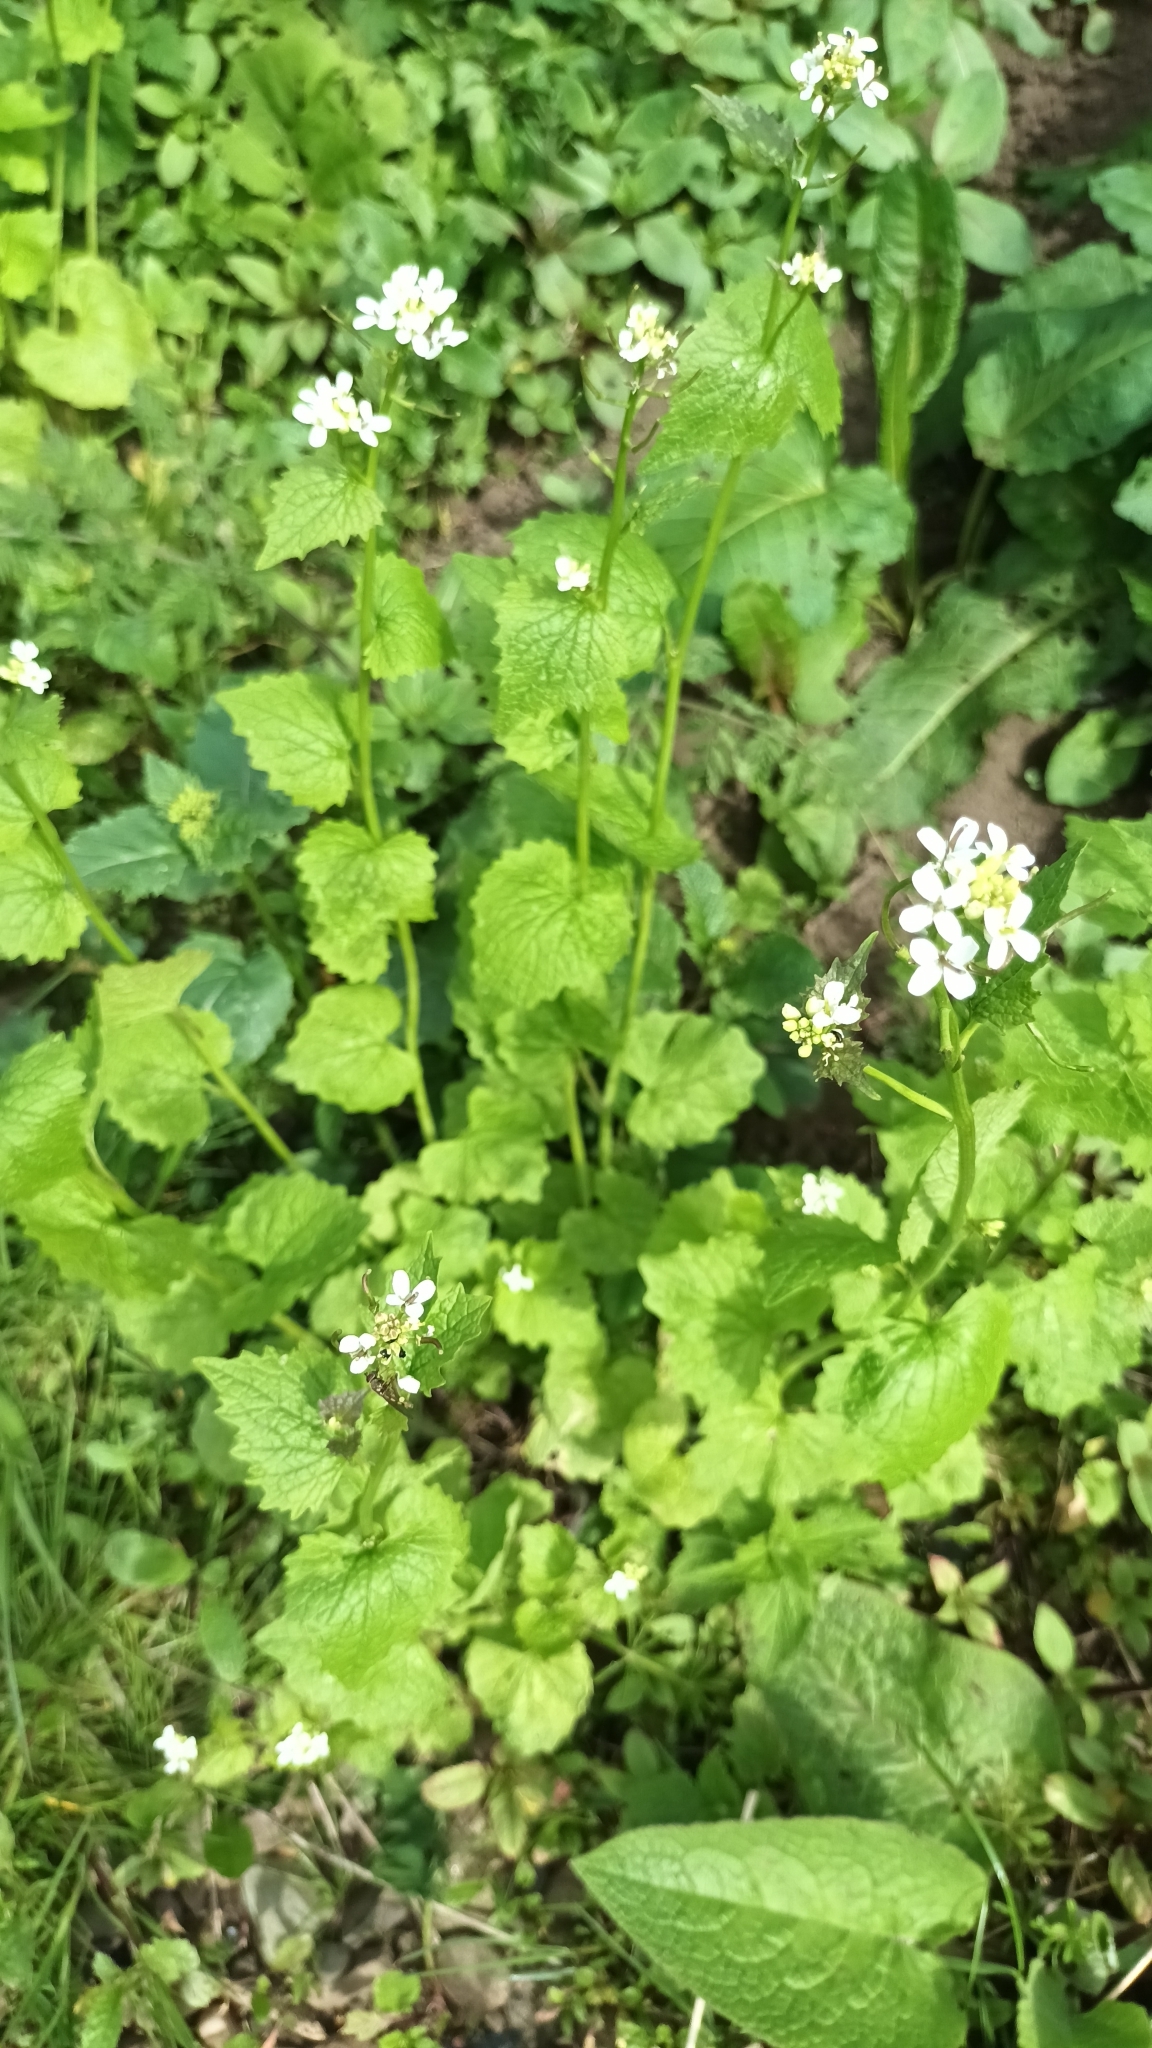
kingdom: Plantae
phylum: Tracheophyta
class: Magnoliopsida
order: Brassicales
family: Brassicaceae
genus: Alliaria
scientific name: Alliaria petiolata
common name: Garlic mustard
